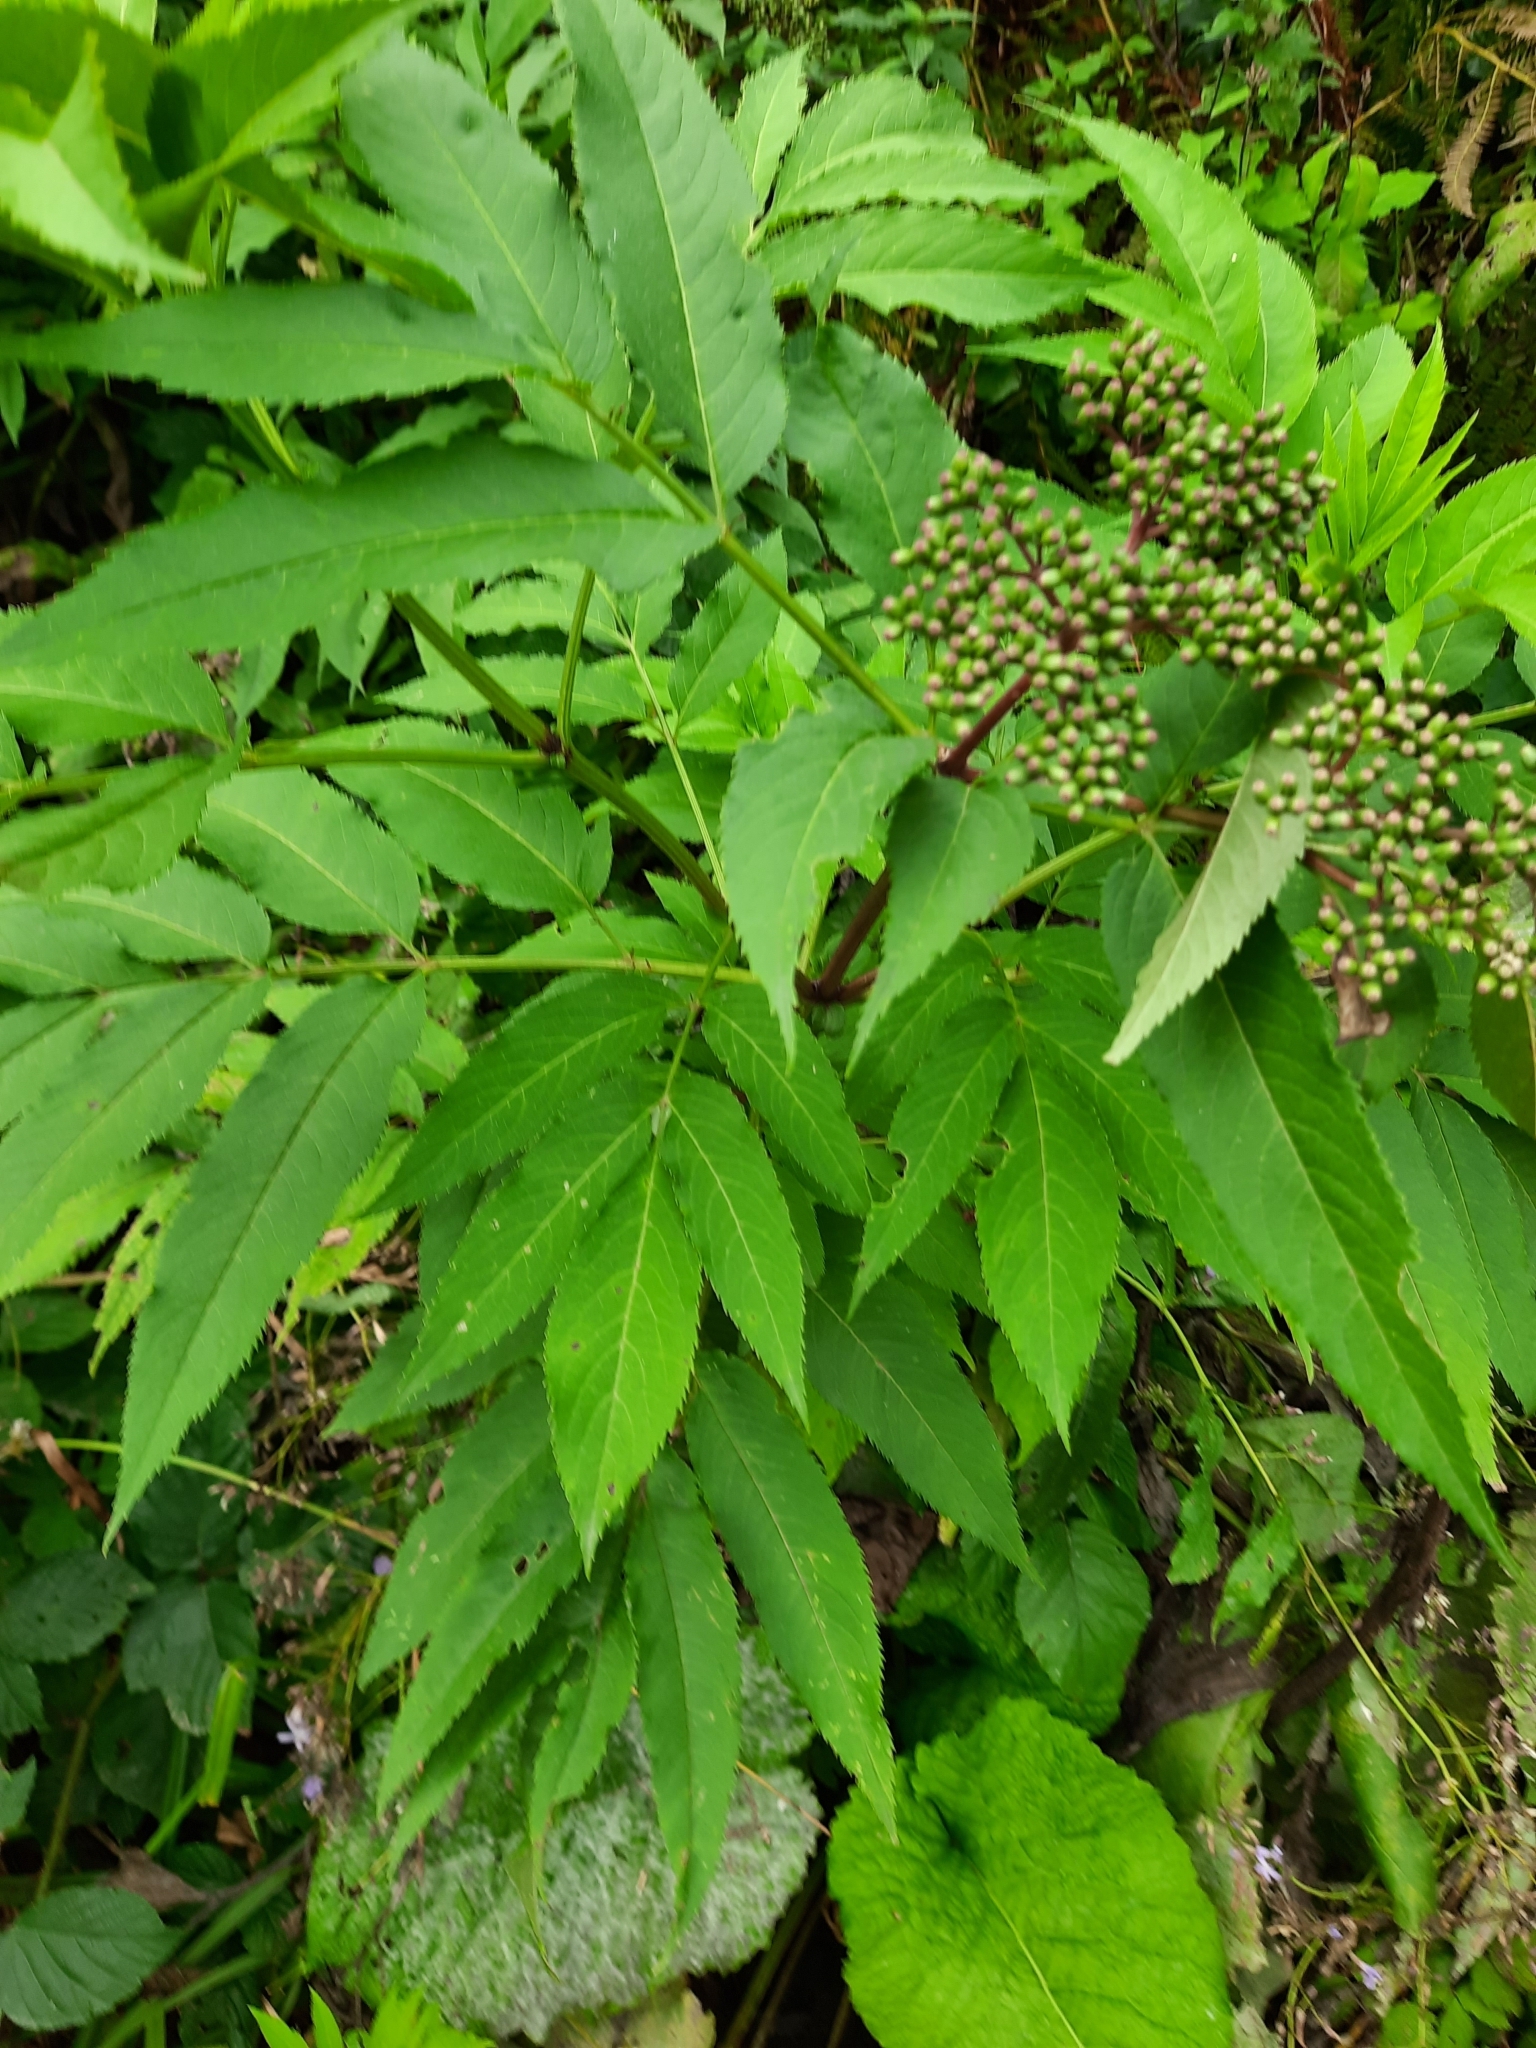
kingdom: Plantae
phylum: Tracheophyta
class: Magnoliopsida
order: Dipsacales
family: Viburnaceae
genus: Sambucus
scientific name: Sambucus ebulus
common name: Dwarf elder
